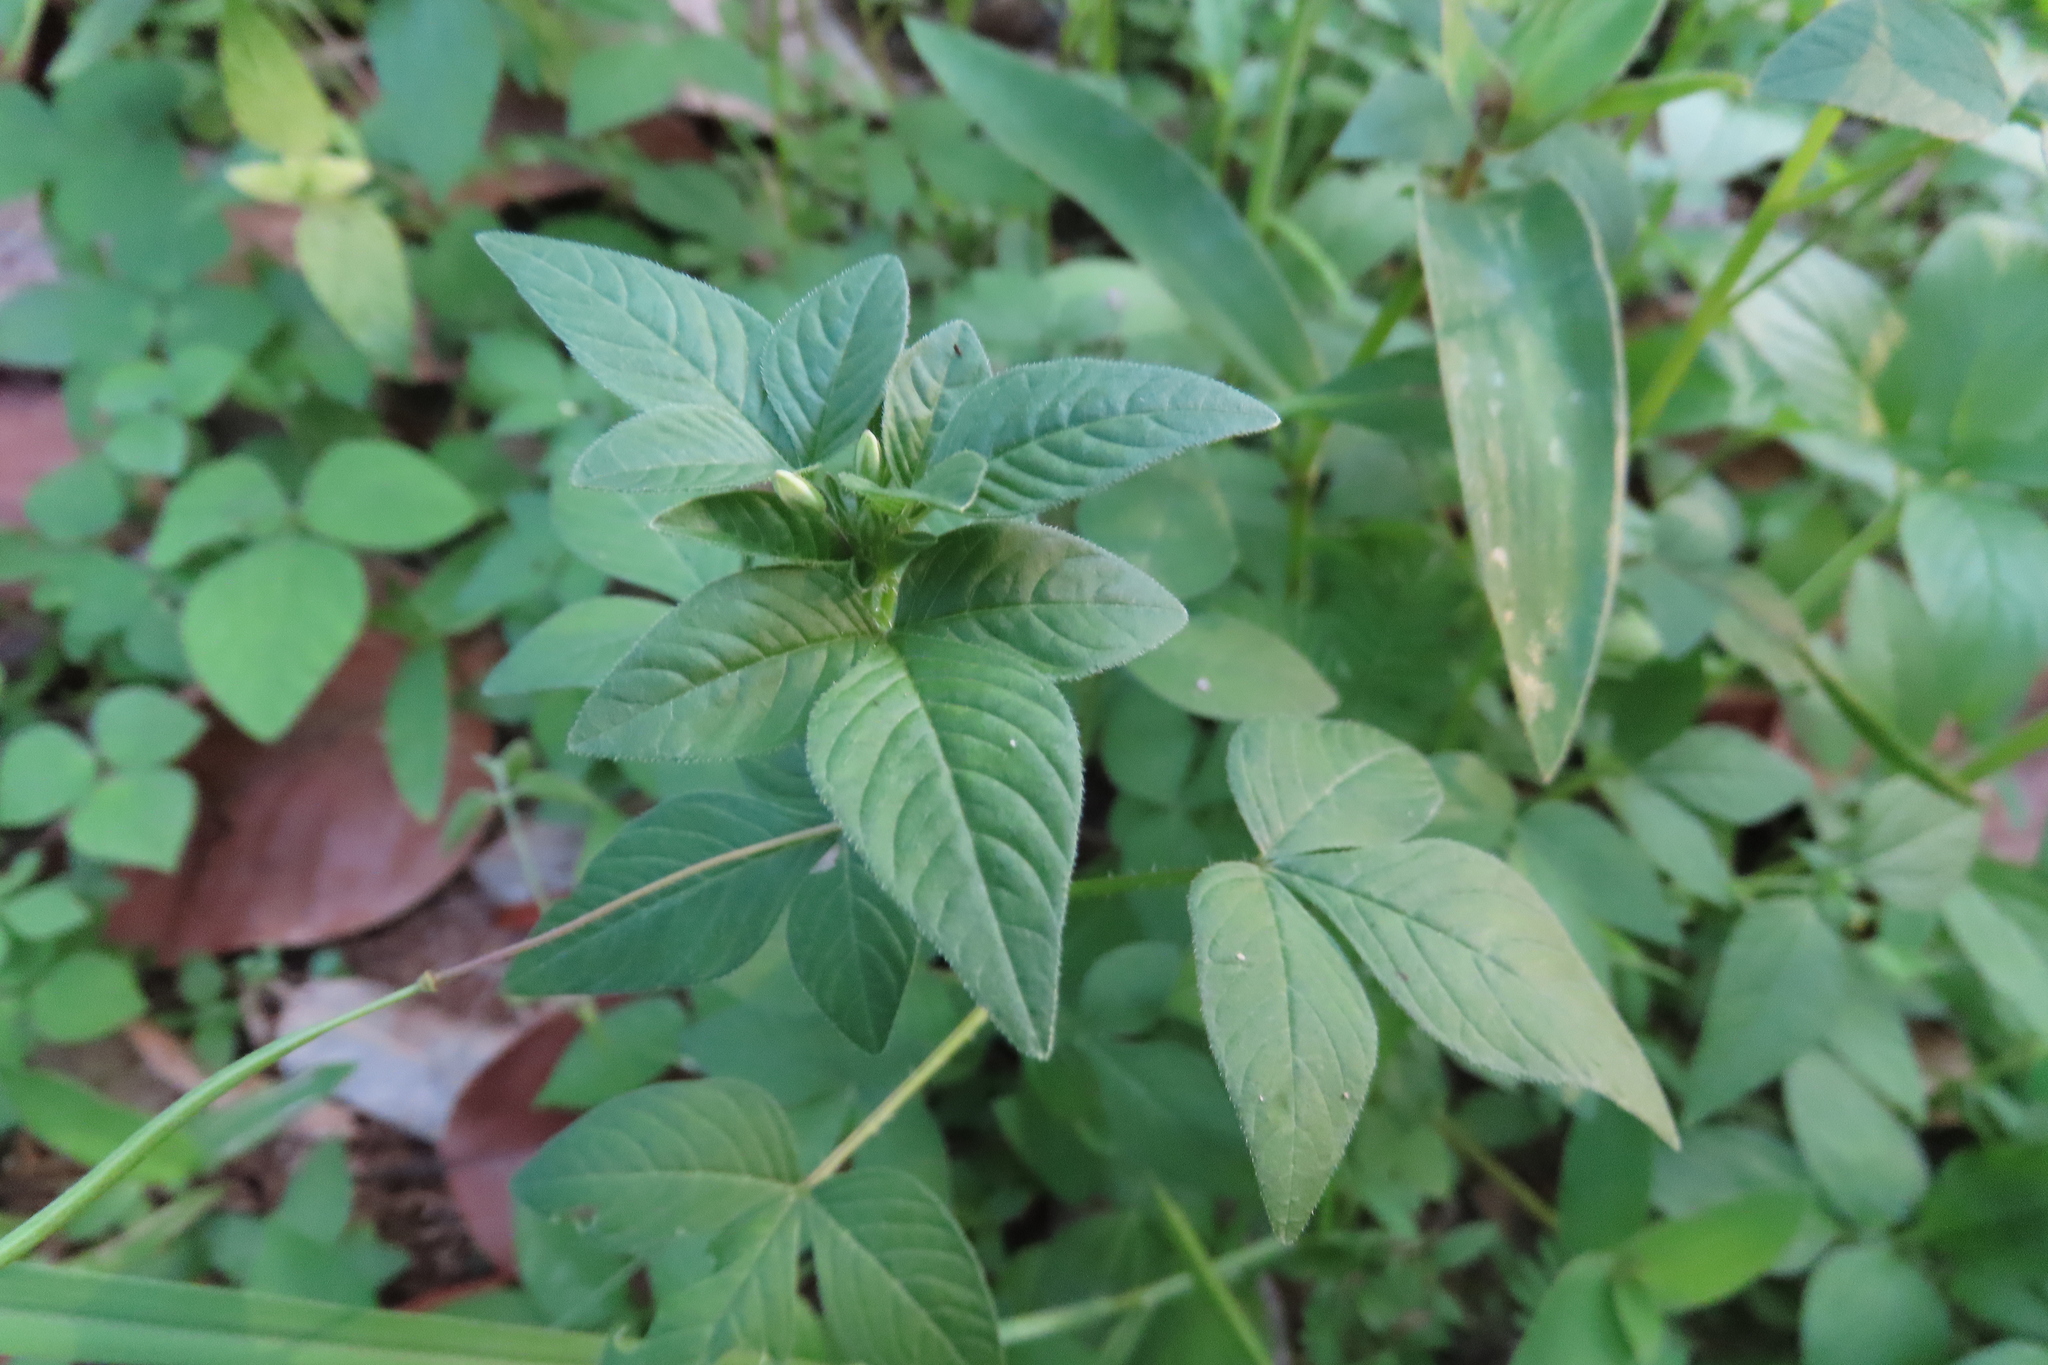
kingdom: Plantae
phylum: Tracheophyta
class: Magnoliopsida
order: Brassicales
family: Cleomaceae
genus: Sieruela
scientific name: Sieruela rutidosperma
